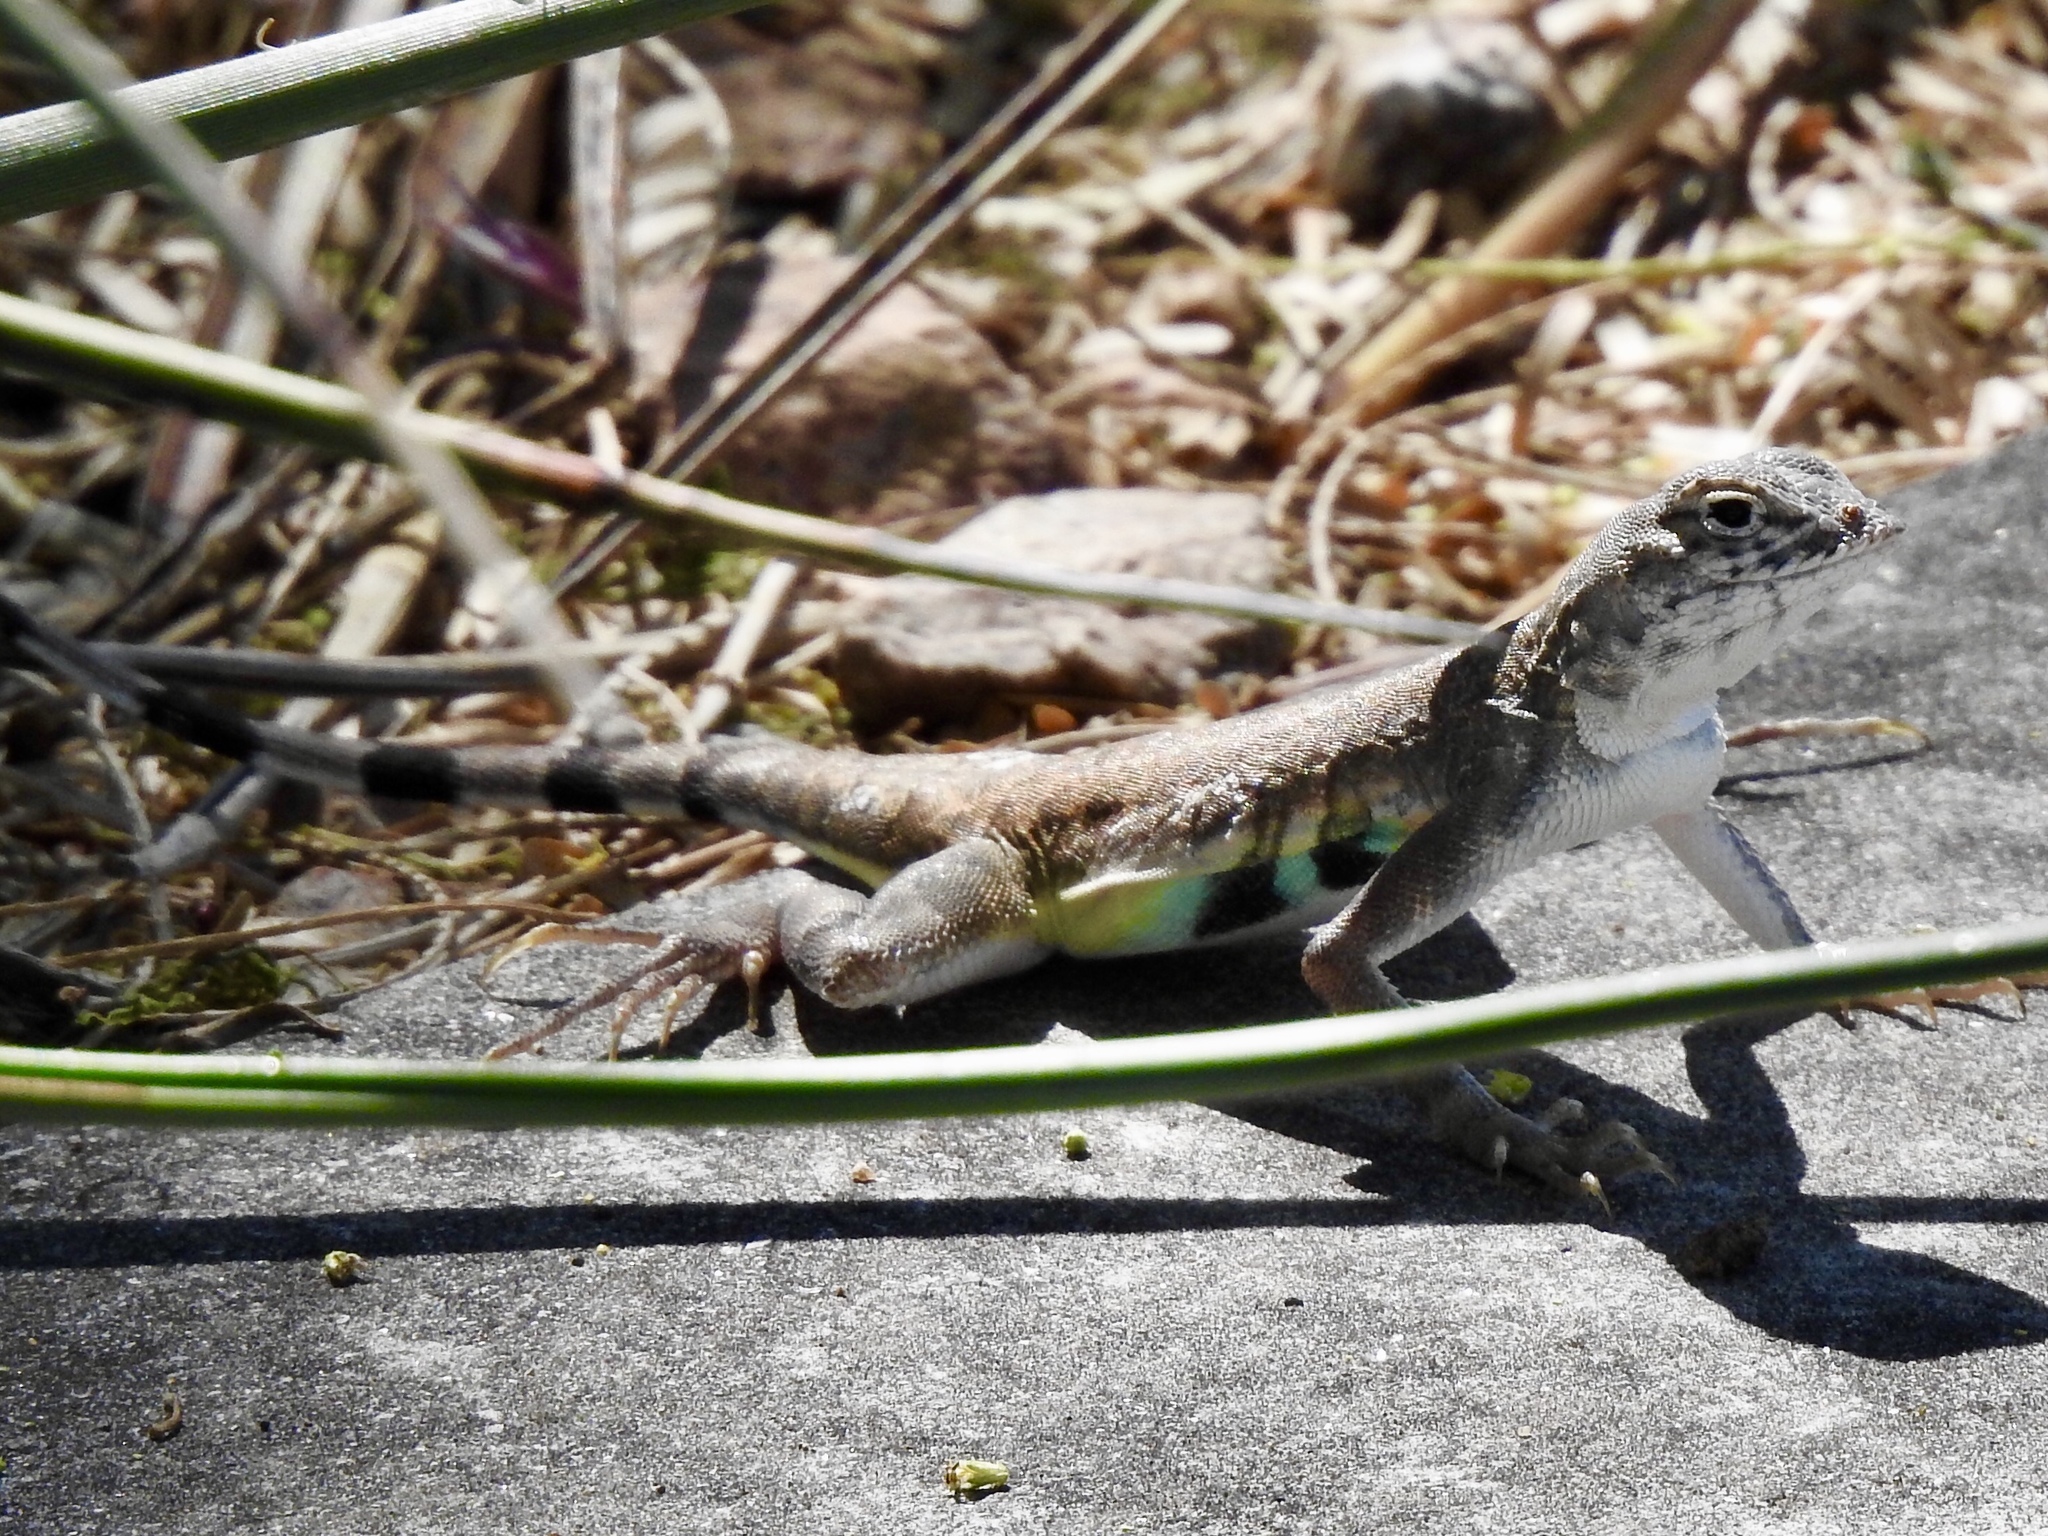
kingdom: Animalia
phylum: Chordata
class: Squamata
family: Phrynosomatidae
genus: Callisaurus
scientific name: Callisaurus draconoides
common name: Zebra-tailed lizard
